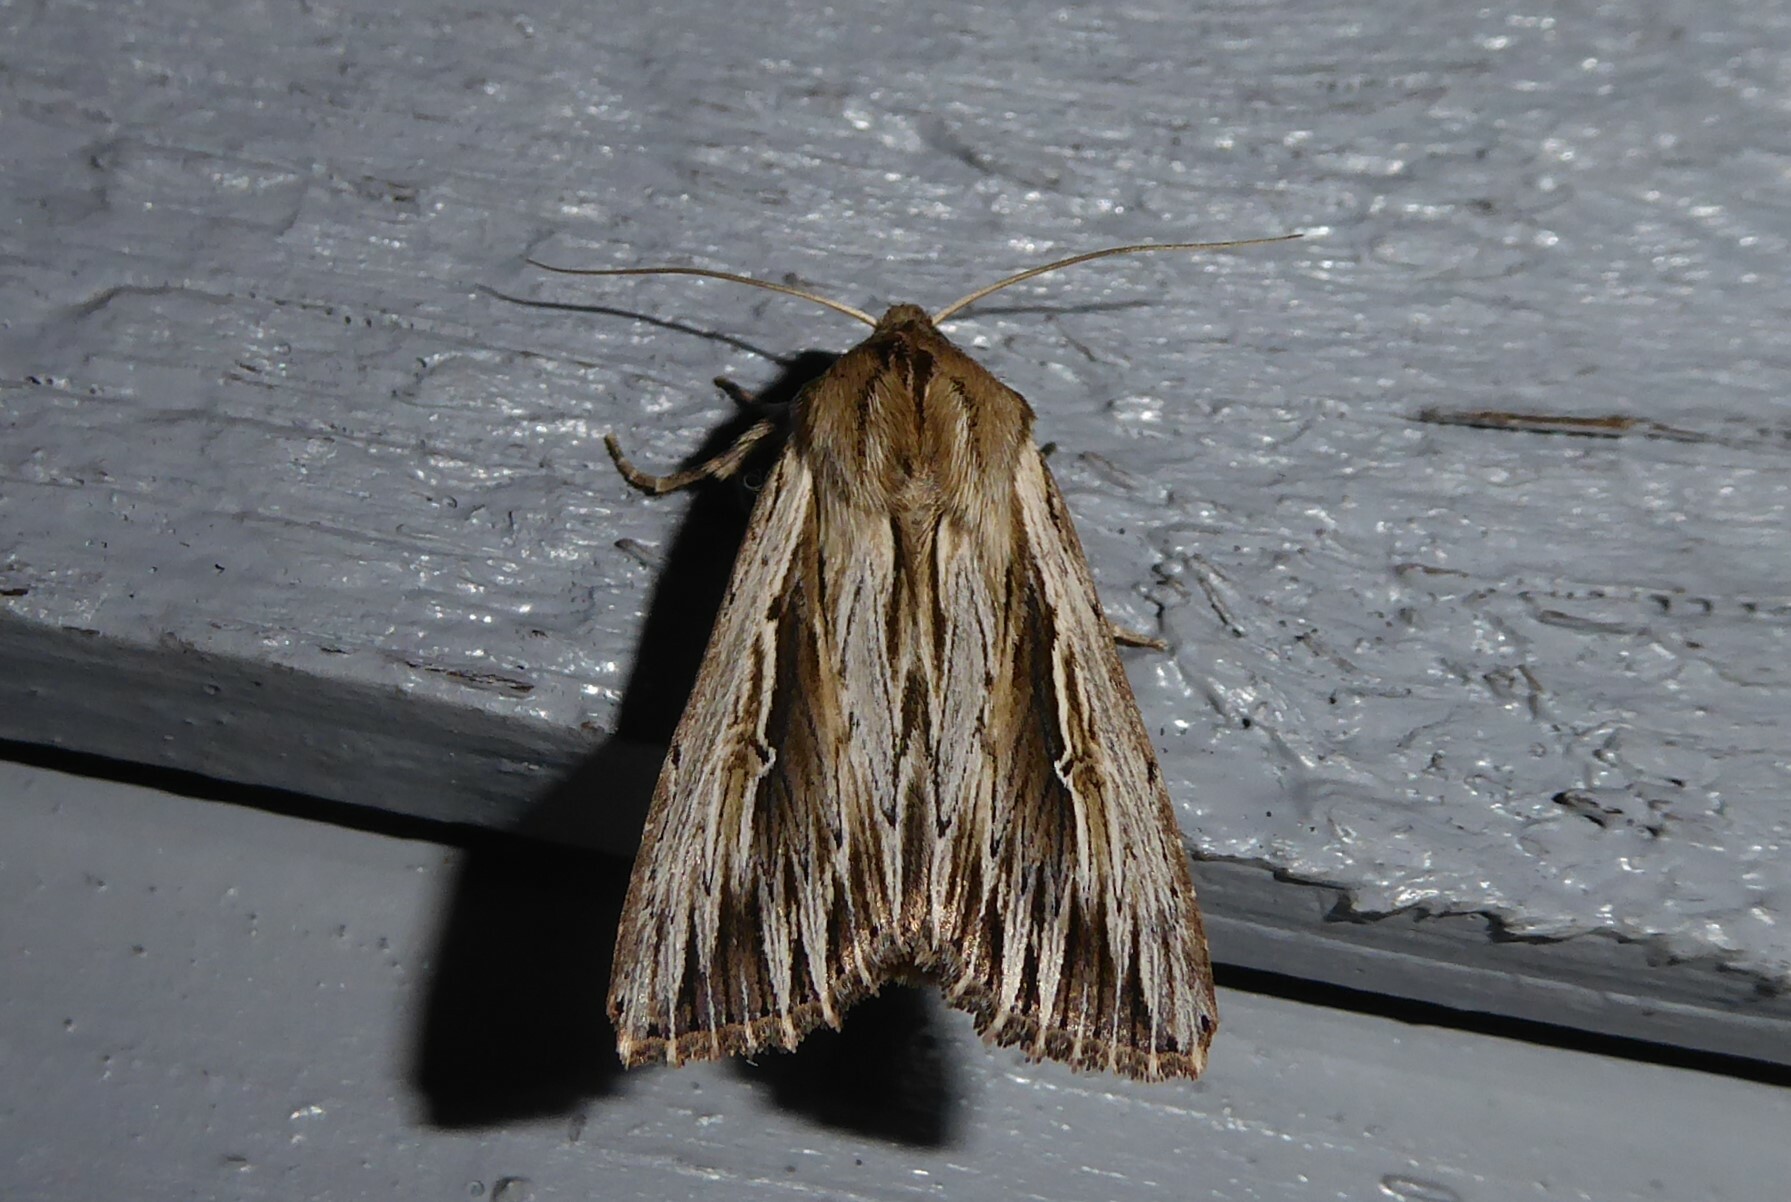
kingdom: Animalia
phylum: Arthropoda
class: Insecta
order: Lepidoptera
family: Noctuidae
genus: Persectania
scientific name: Persectania aversa
